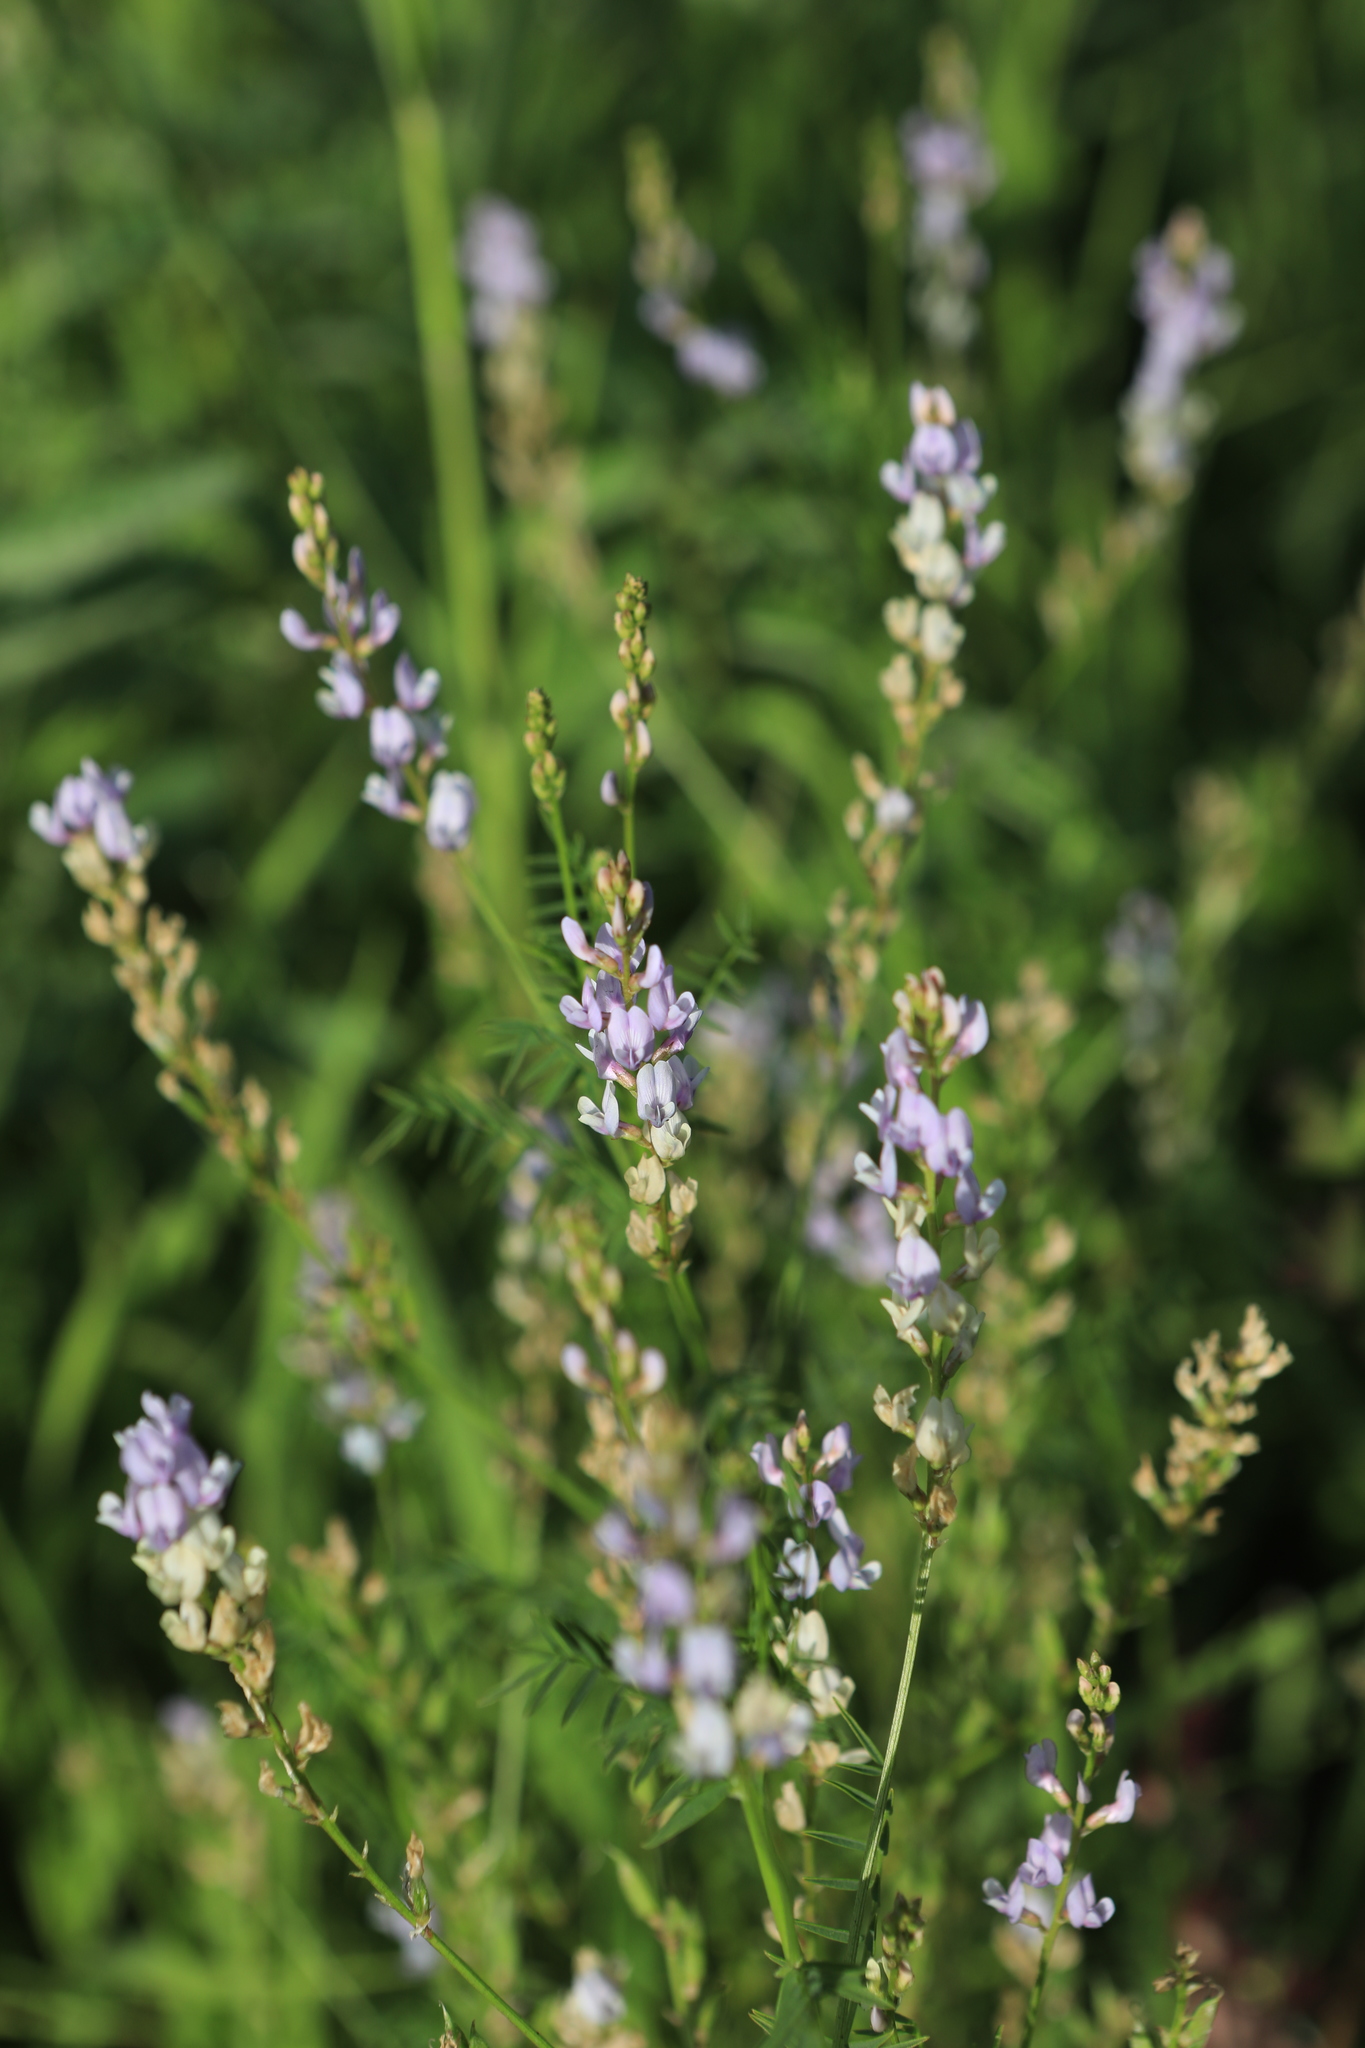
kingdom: Plantae
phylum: Tracheophyta
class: Magnoliopsida
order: Fabales
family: Fabaceae
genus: Astragalus
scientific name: Astragalus sulcatus
